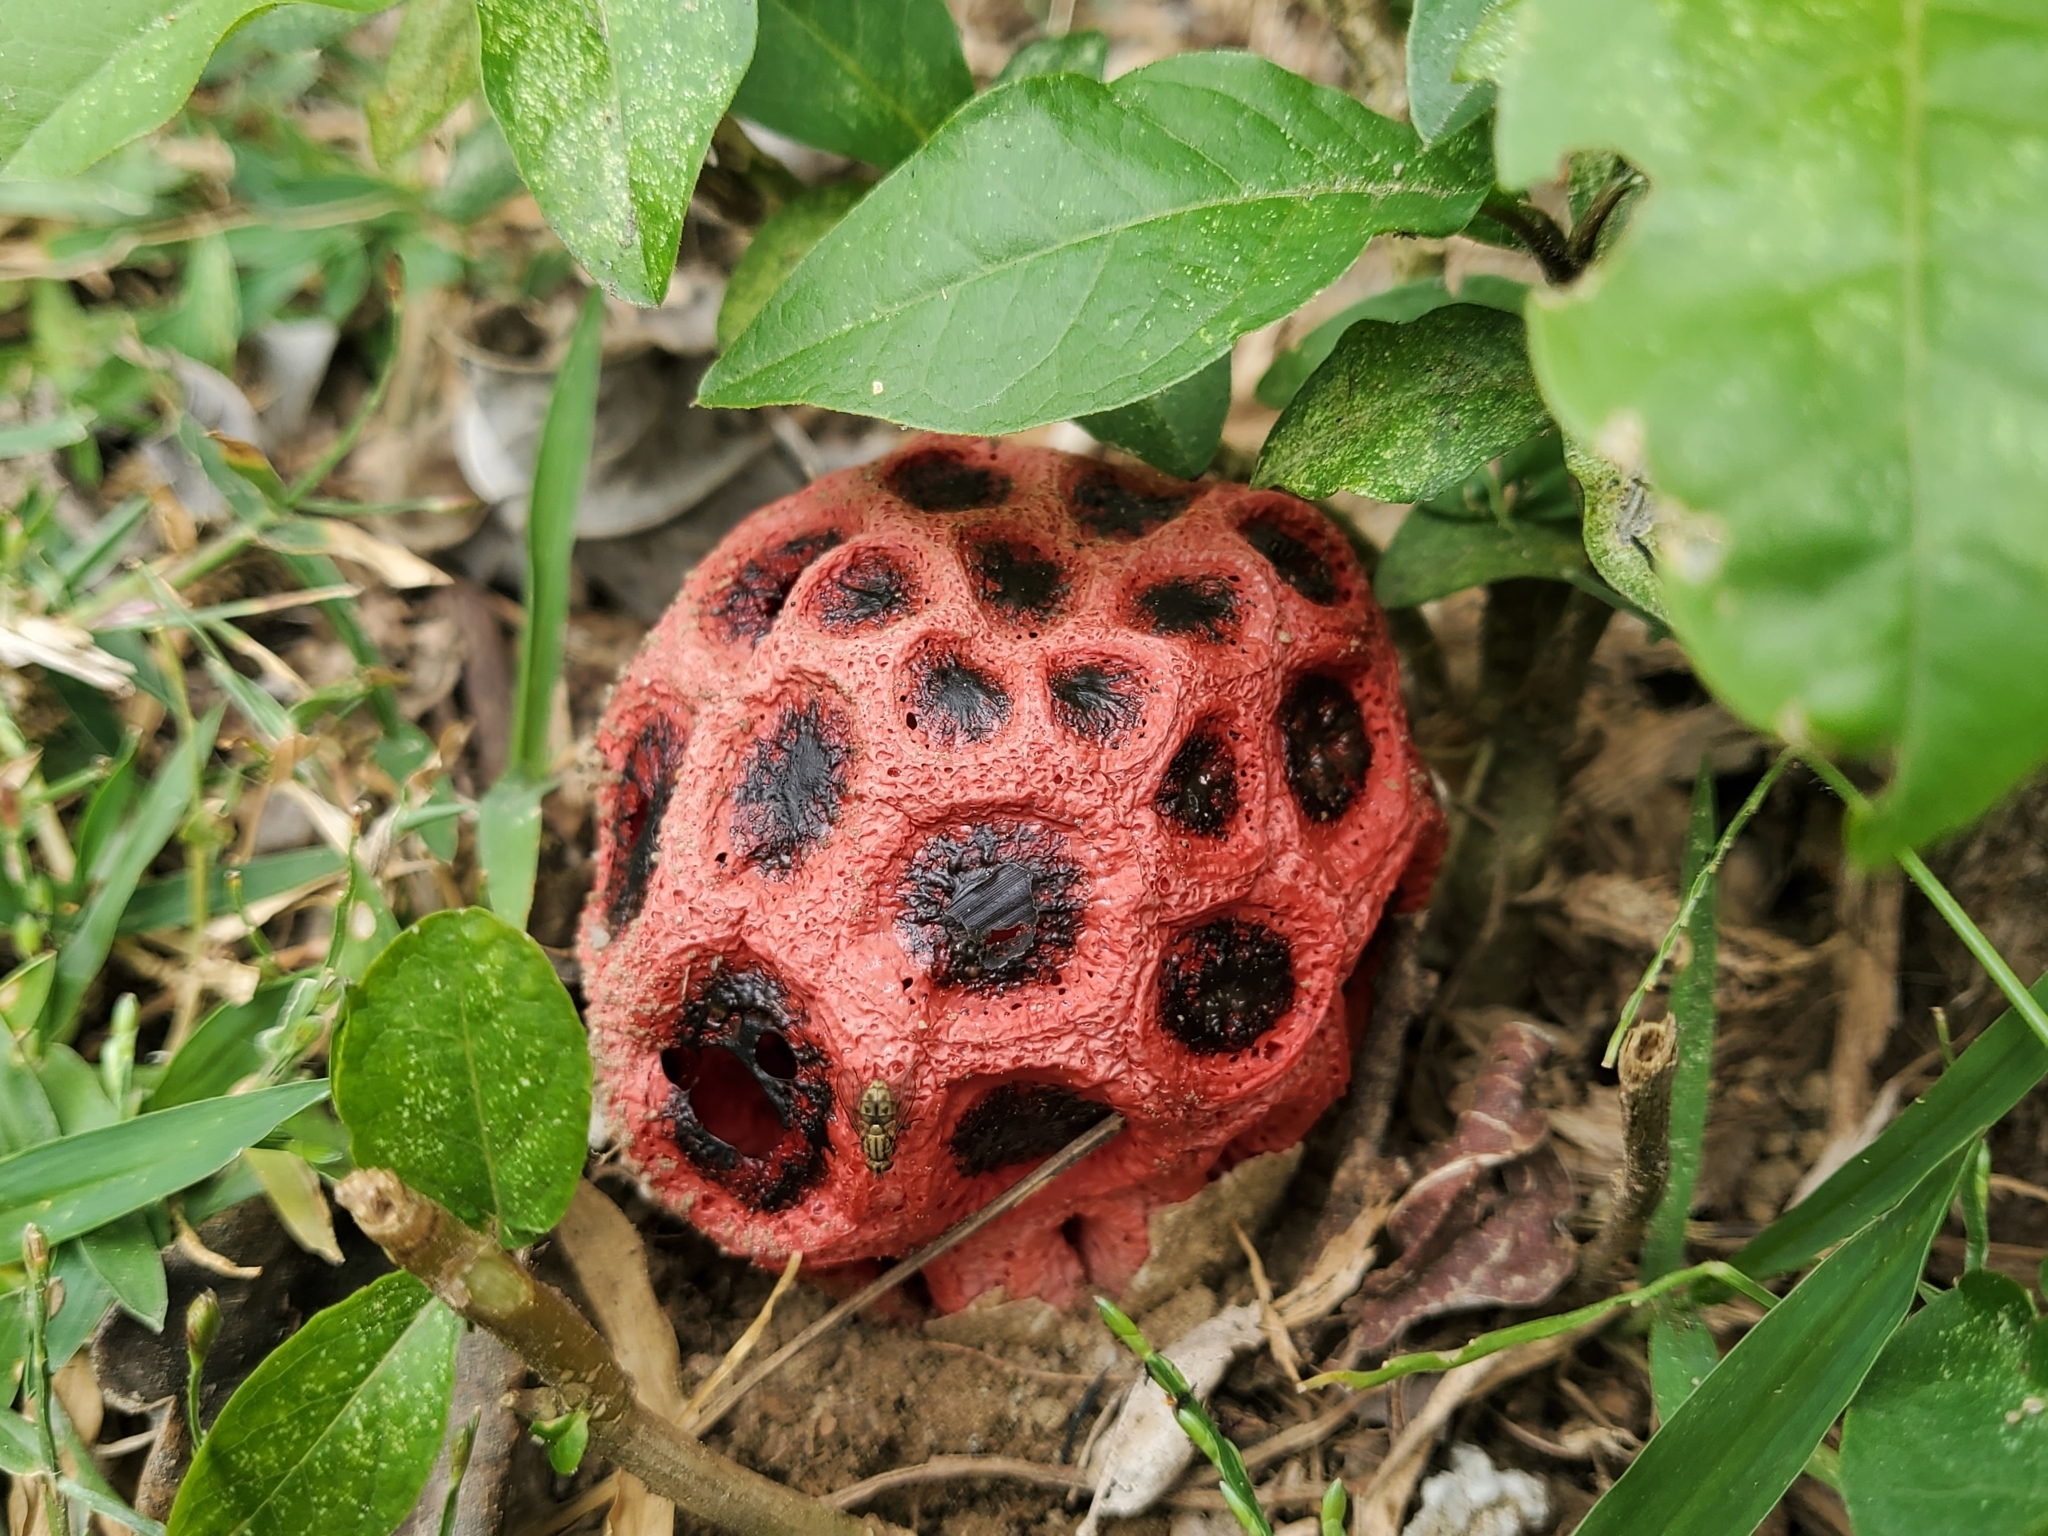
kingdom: Fungi
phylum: Basidiomycota
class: Agaricomycetes
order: Phallales
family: Phallaceae
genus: Clathrus
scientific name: Clathrus crispatus
